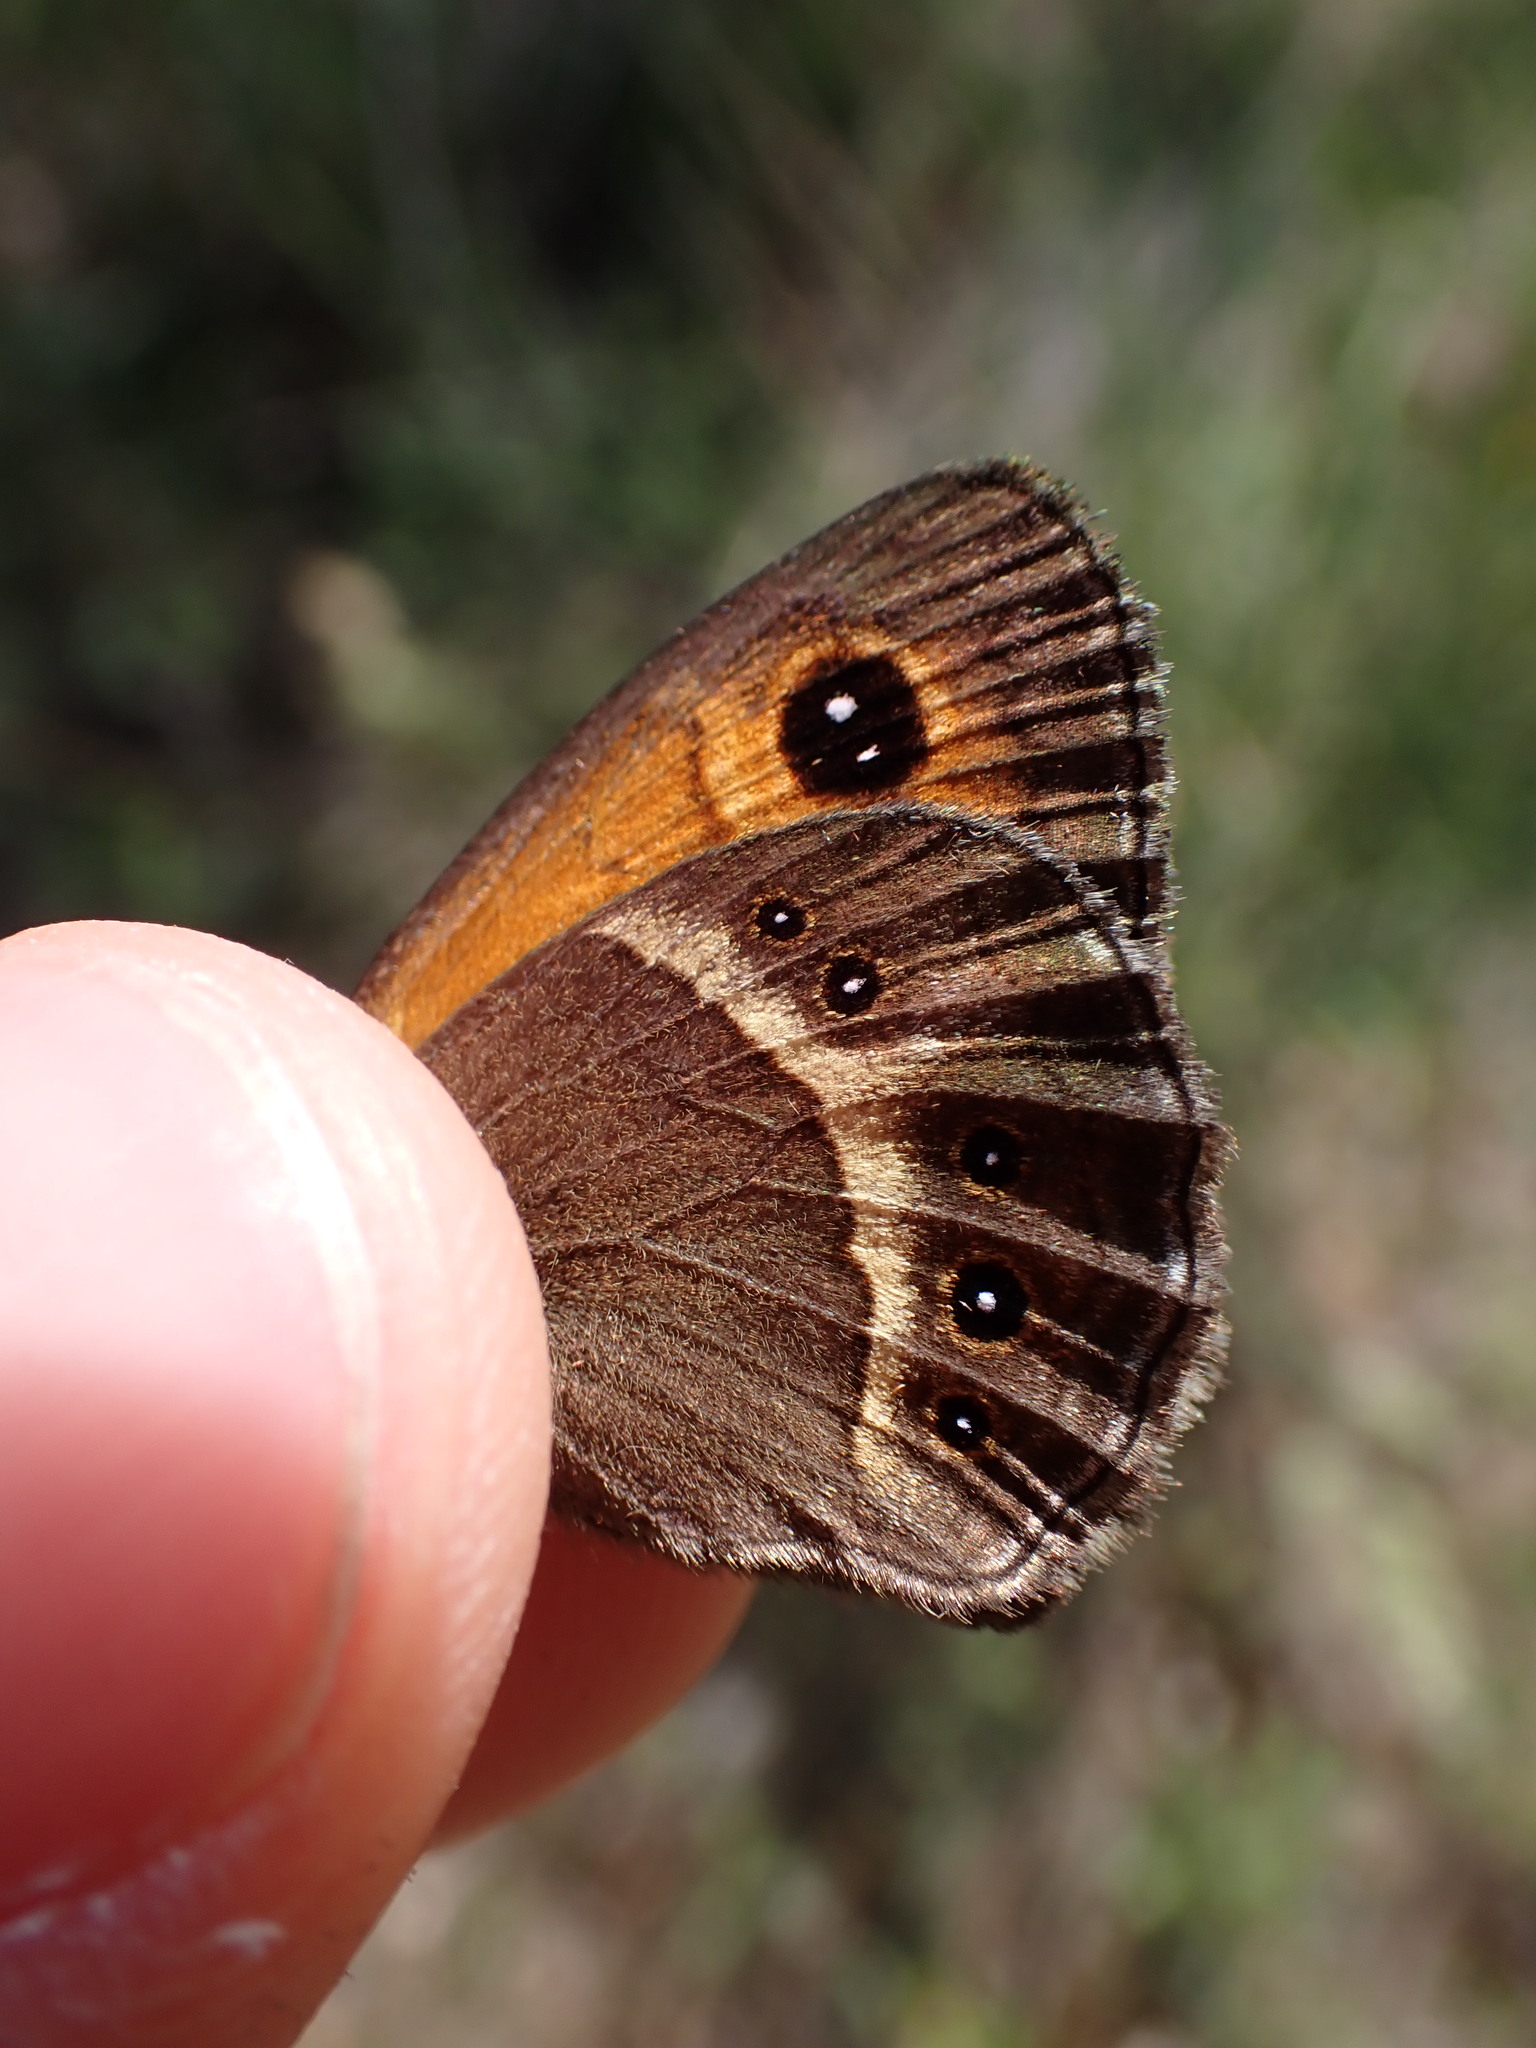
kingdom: Animalia
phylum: Arthropoda
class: Insecta
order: Lepidoptera
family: Nymphalidae
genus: Pyronia
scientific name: Pyronia bathseba
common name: Spanish gatekeeper
